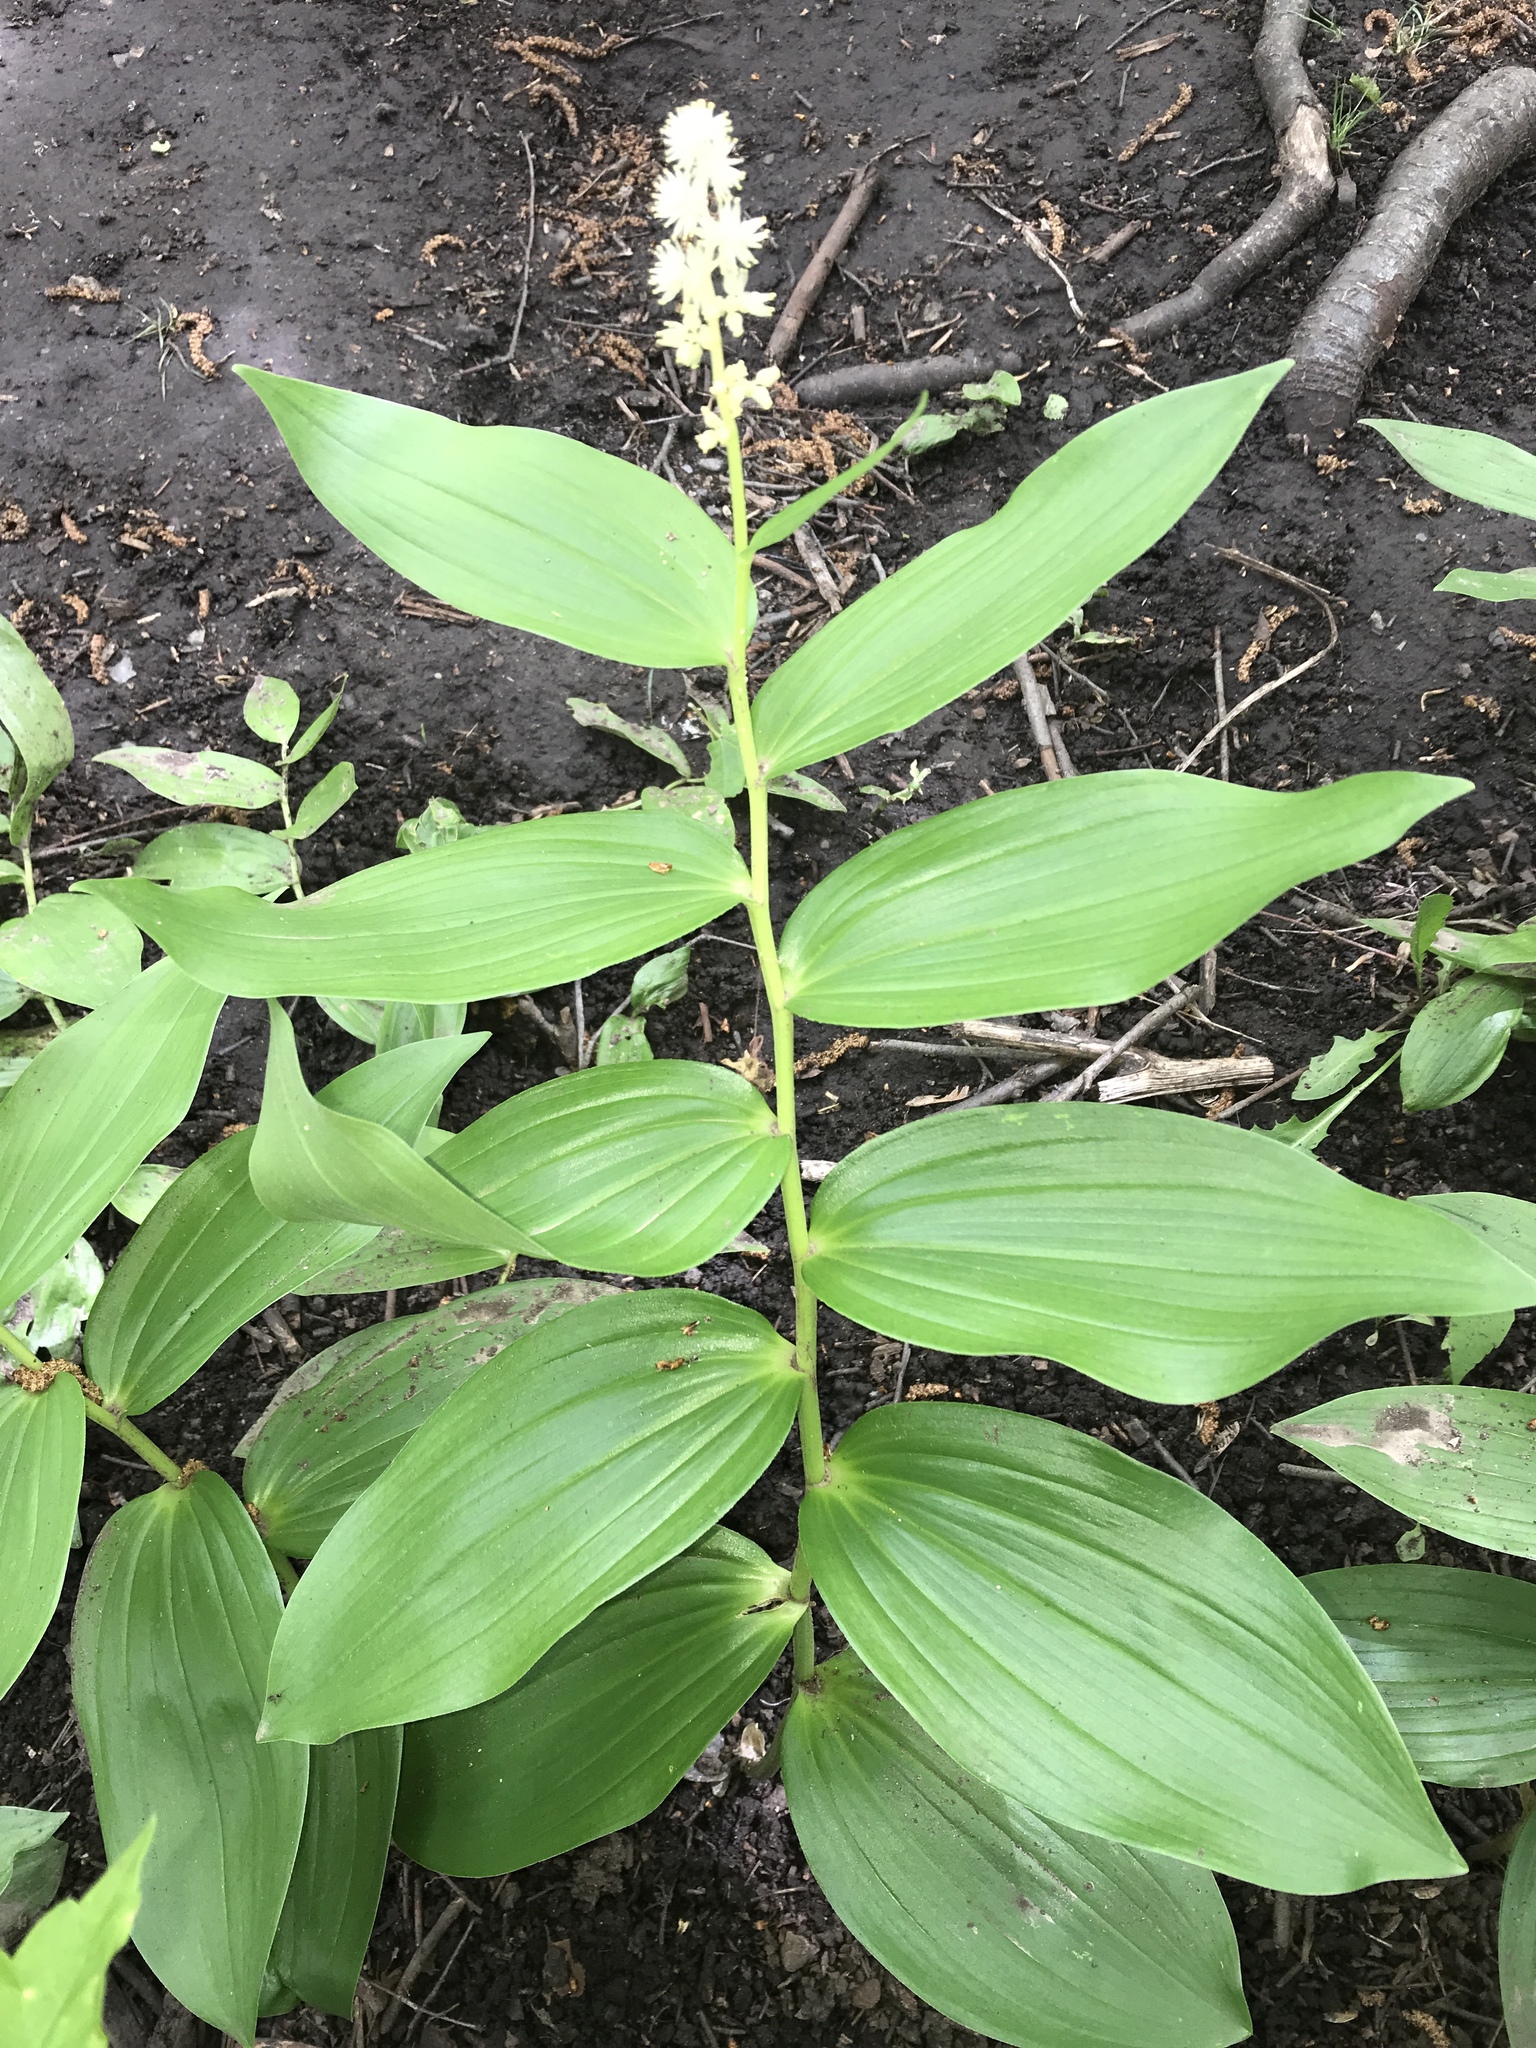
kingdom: Plantae
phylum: Tracheophyta
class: Liliopsida
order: Asparagales
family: Asparagaceae
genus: Maianthemum
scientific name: Maianthemum racemosum
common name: False spikenard
